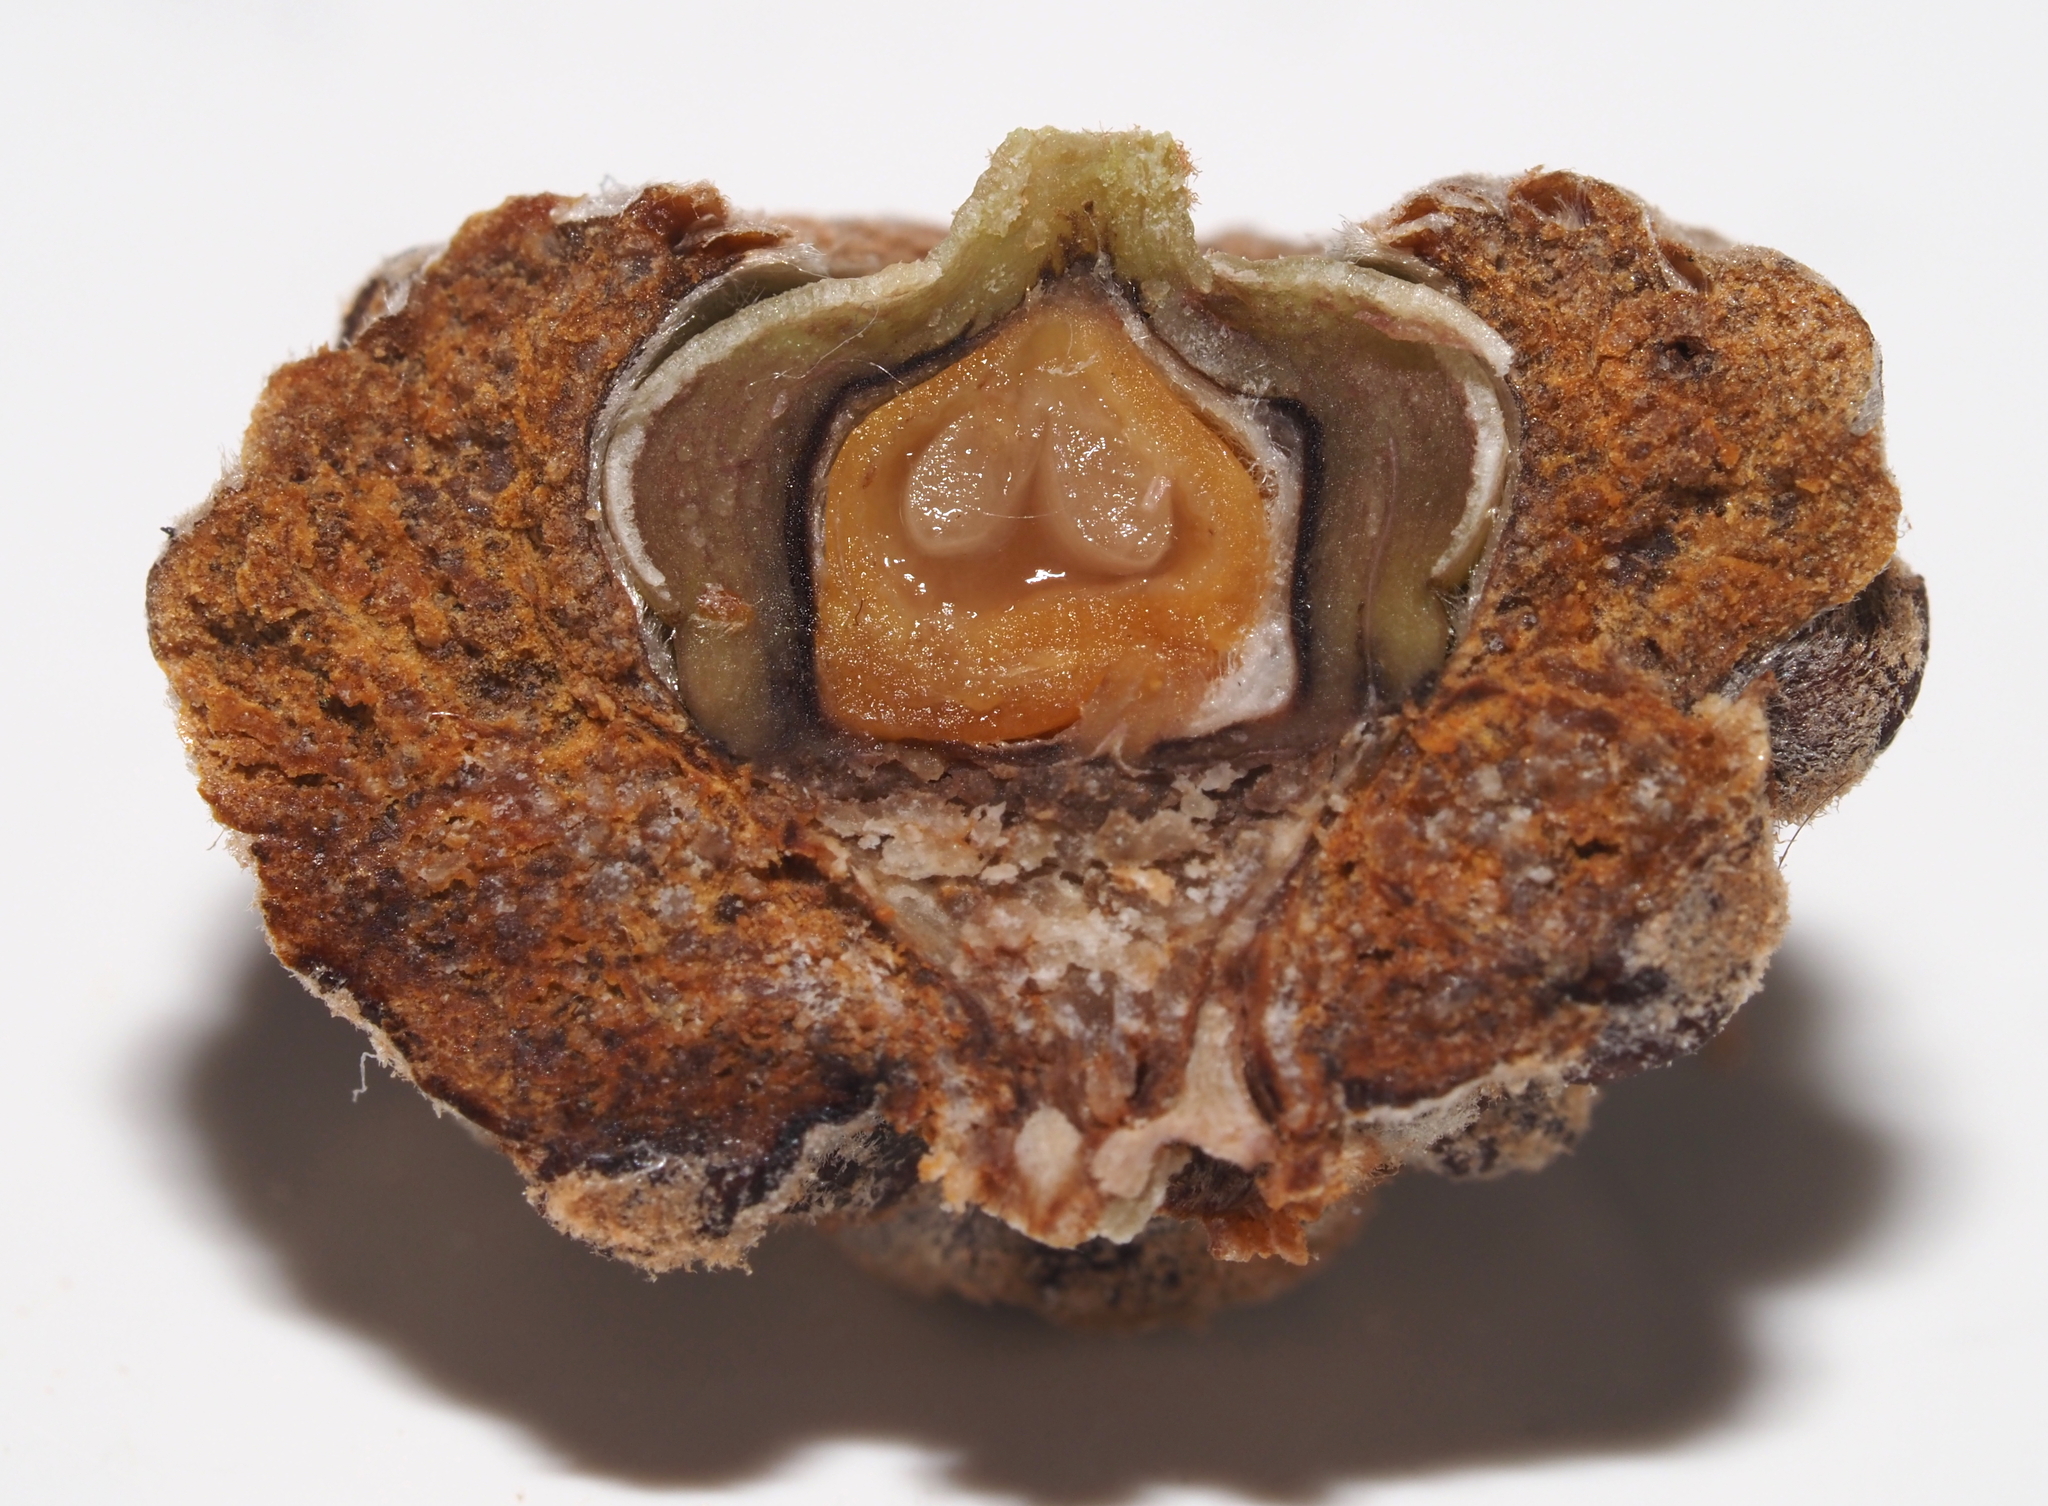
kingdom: Plantae
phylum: Tracheophyta
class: Magnoliopsida
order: Fagales
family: Fagaceae
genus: Quercus
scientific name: Quercus alba
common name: White oak
